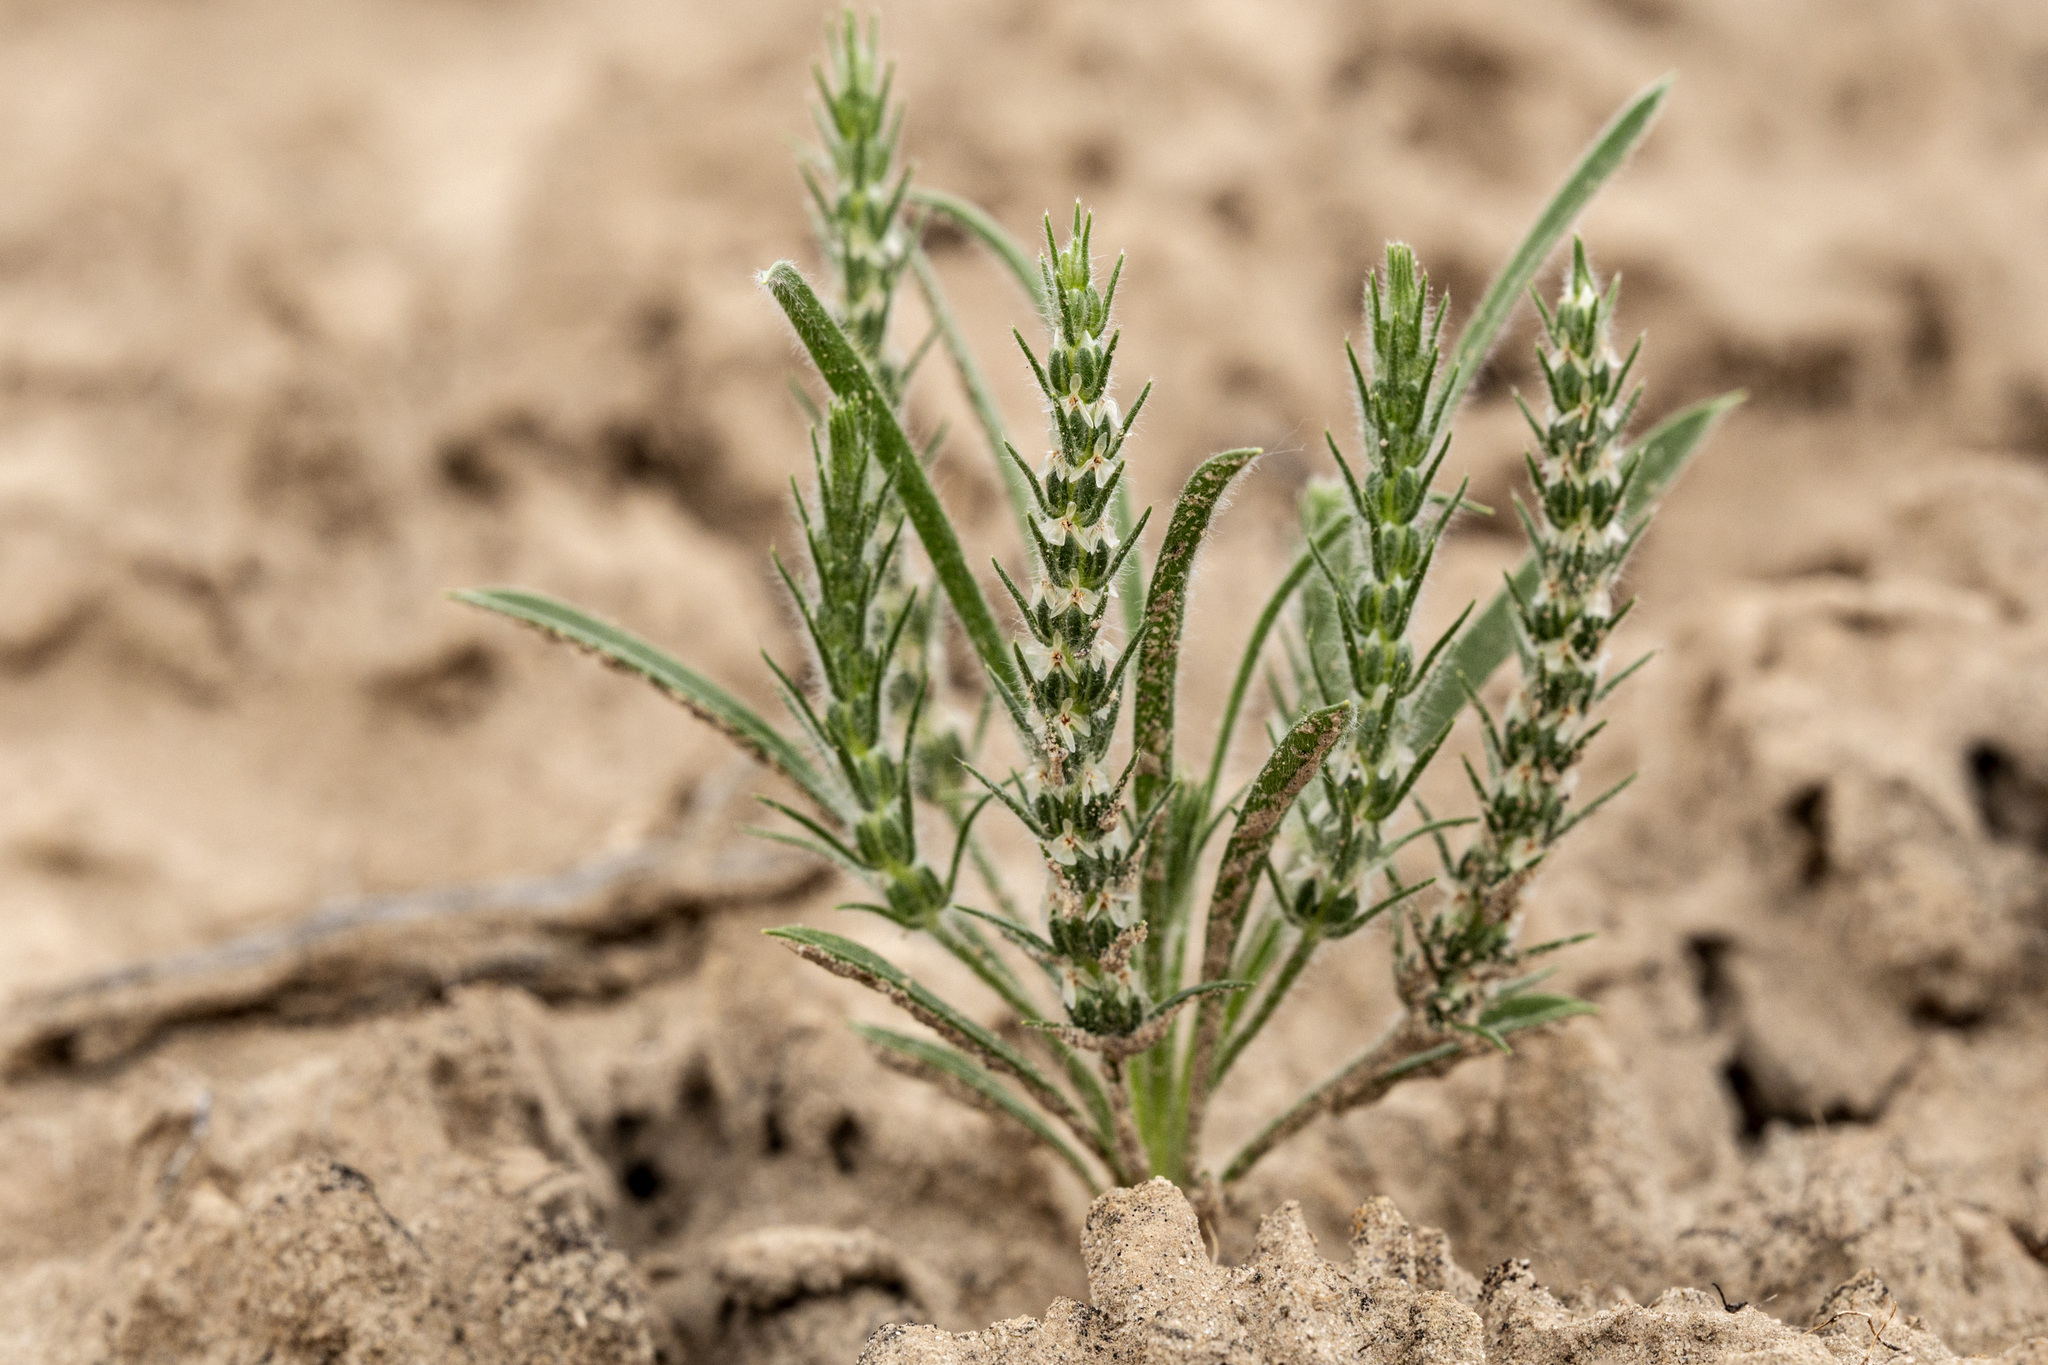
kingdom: Plantae
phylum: Tracheophyta
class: Magnoliopsida
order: Lamiales
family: Plantaginaceae
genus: Plantago
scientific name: Plantago patagonica
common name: Patagonia indian-wheat
